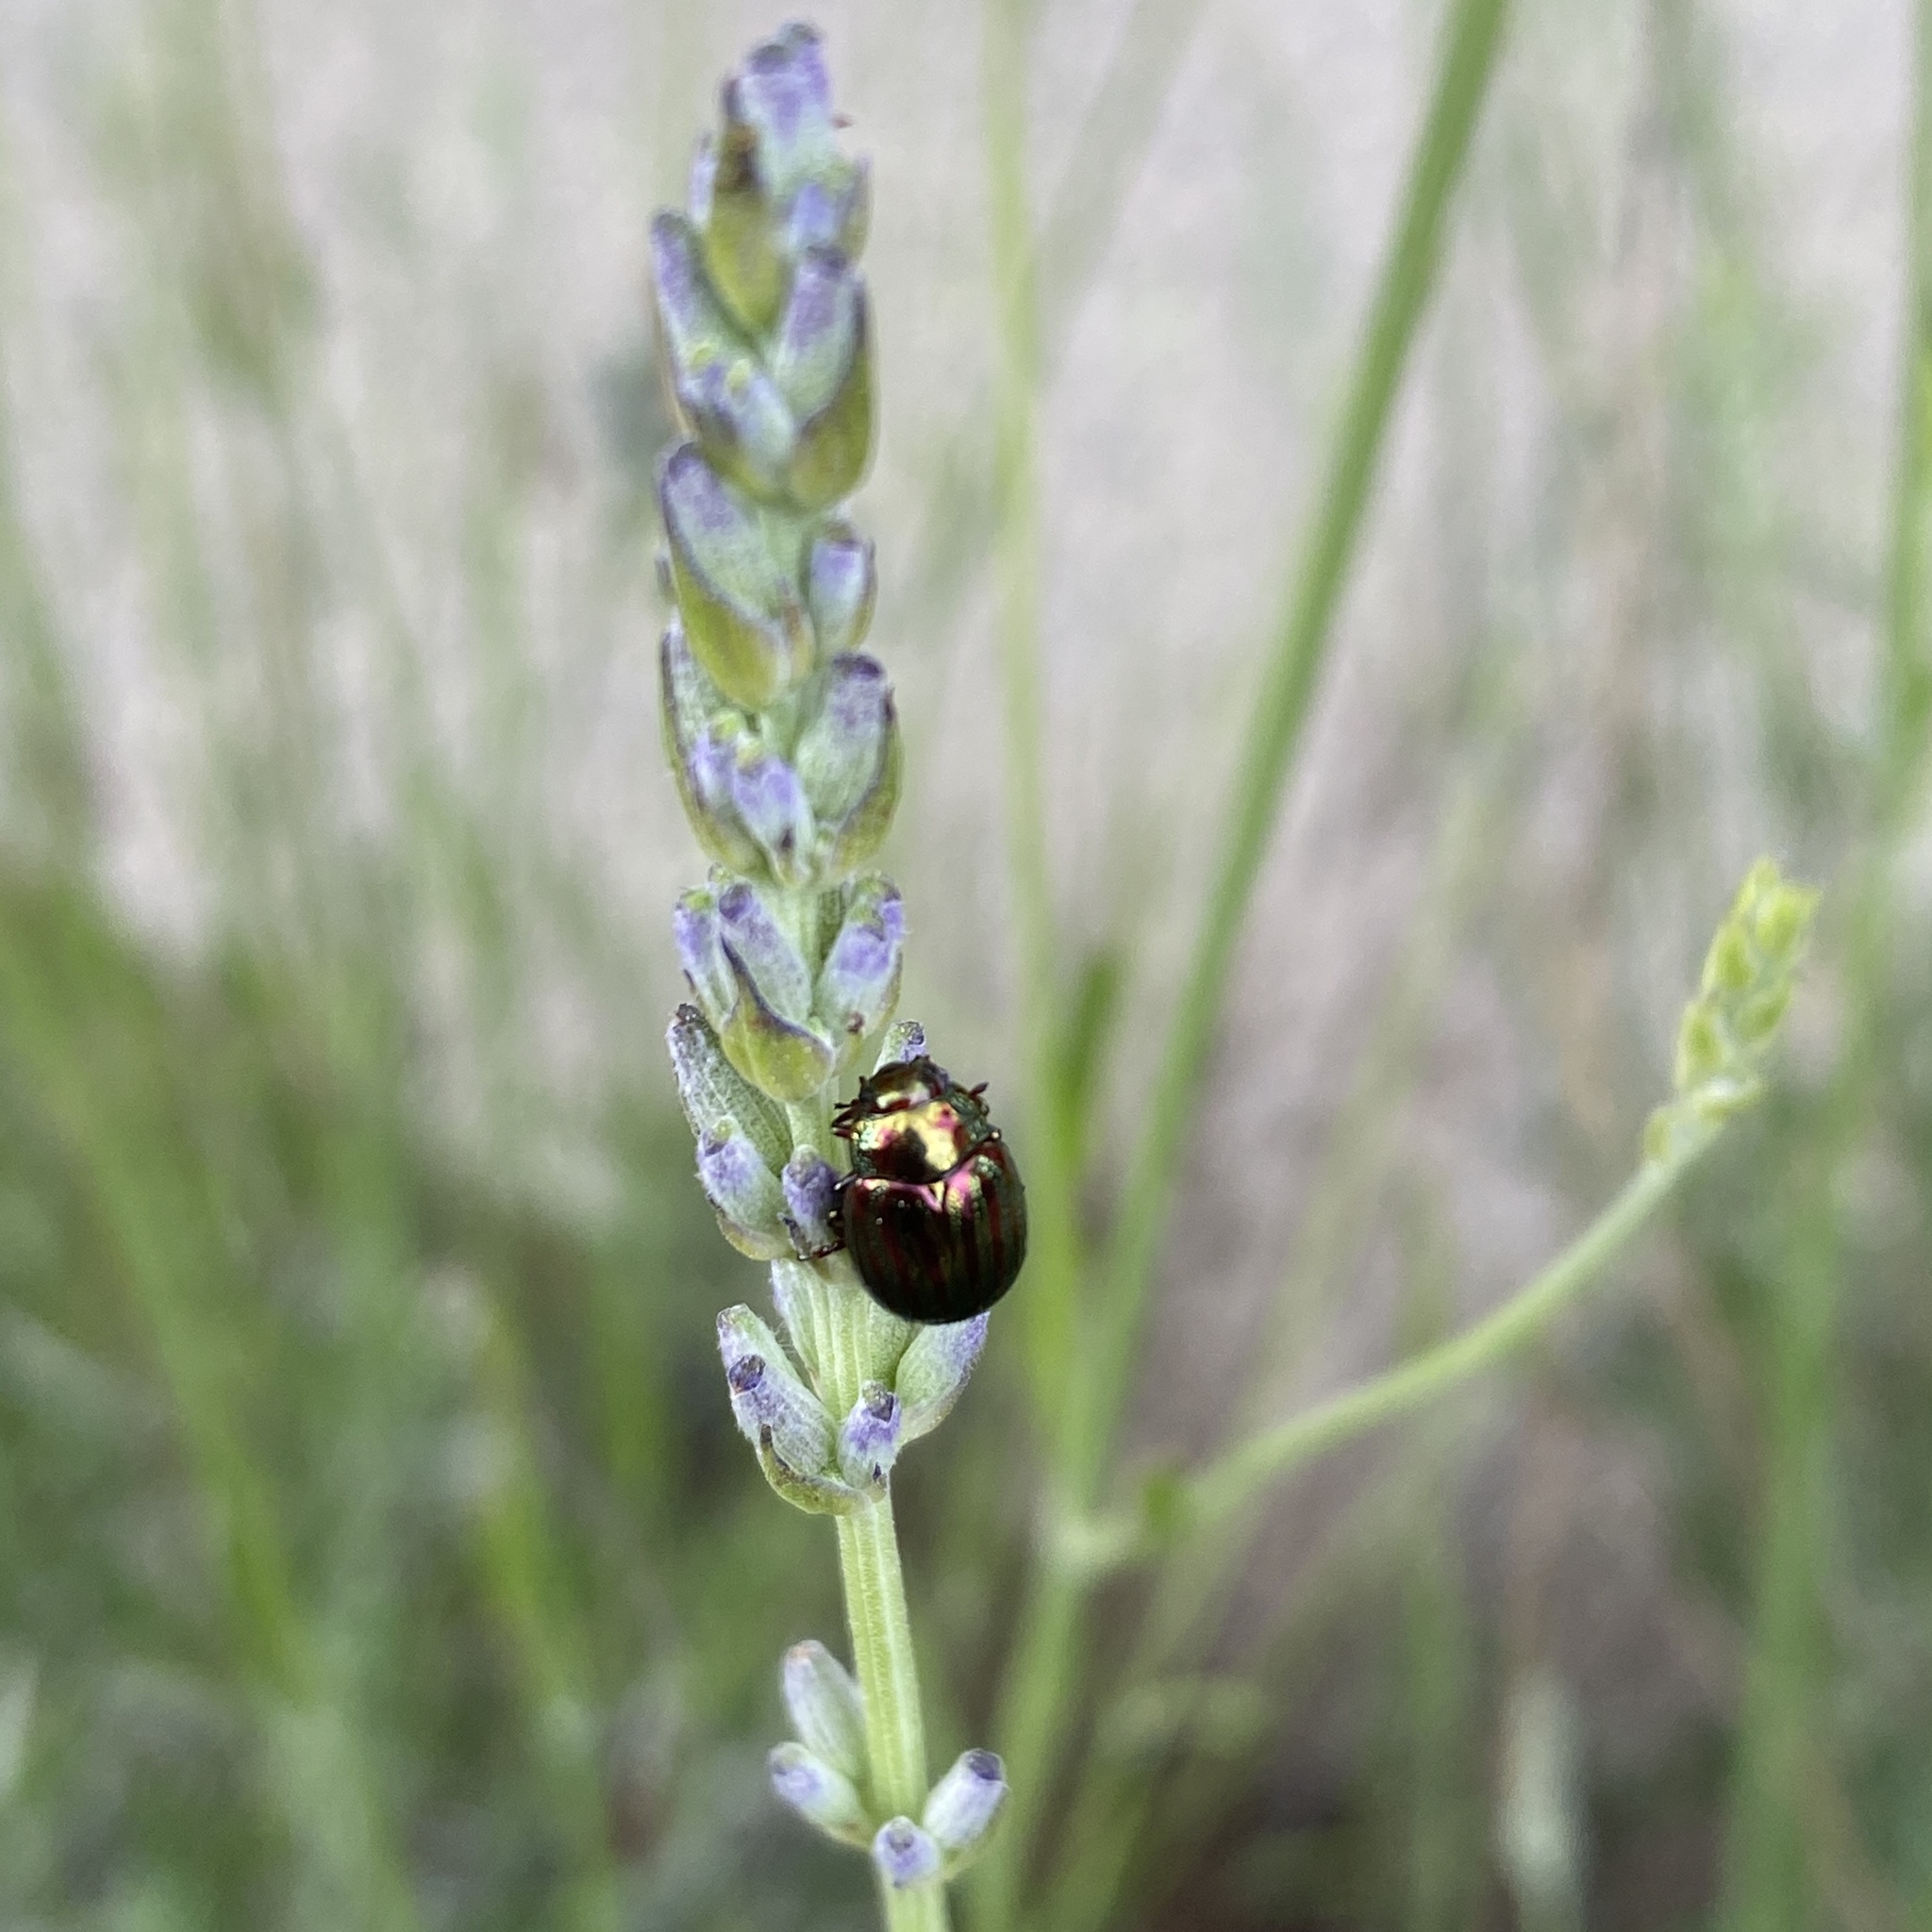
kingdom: Animalia
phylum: Arthropoda
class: Insecta
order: Coleoptera
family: Chrysomelidae
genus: Chrysolina
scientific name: Chrysolina americana
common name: Rosemary beetle
